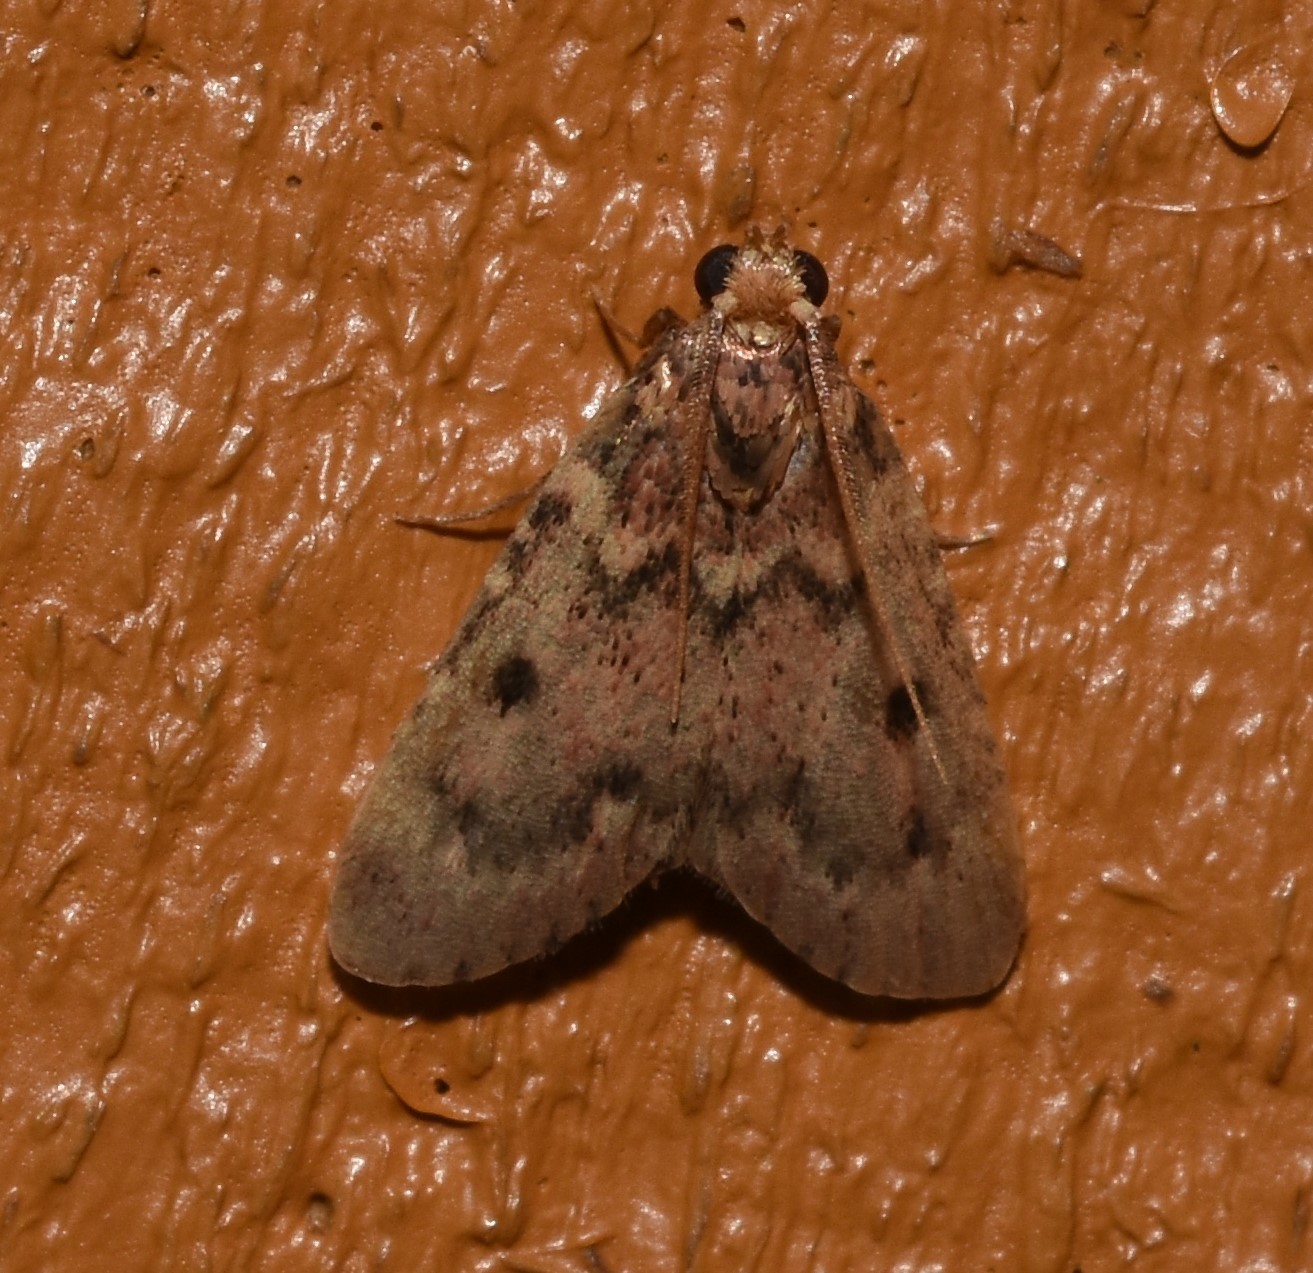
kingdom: Animalia
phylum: Arthropoda
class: Insecta
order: Lepidoptera
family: Pyralidae
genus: Aglossa
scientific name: Aglossa disciferalis
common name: Pink-masked pyralid moth
